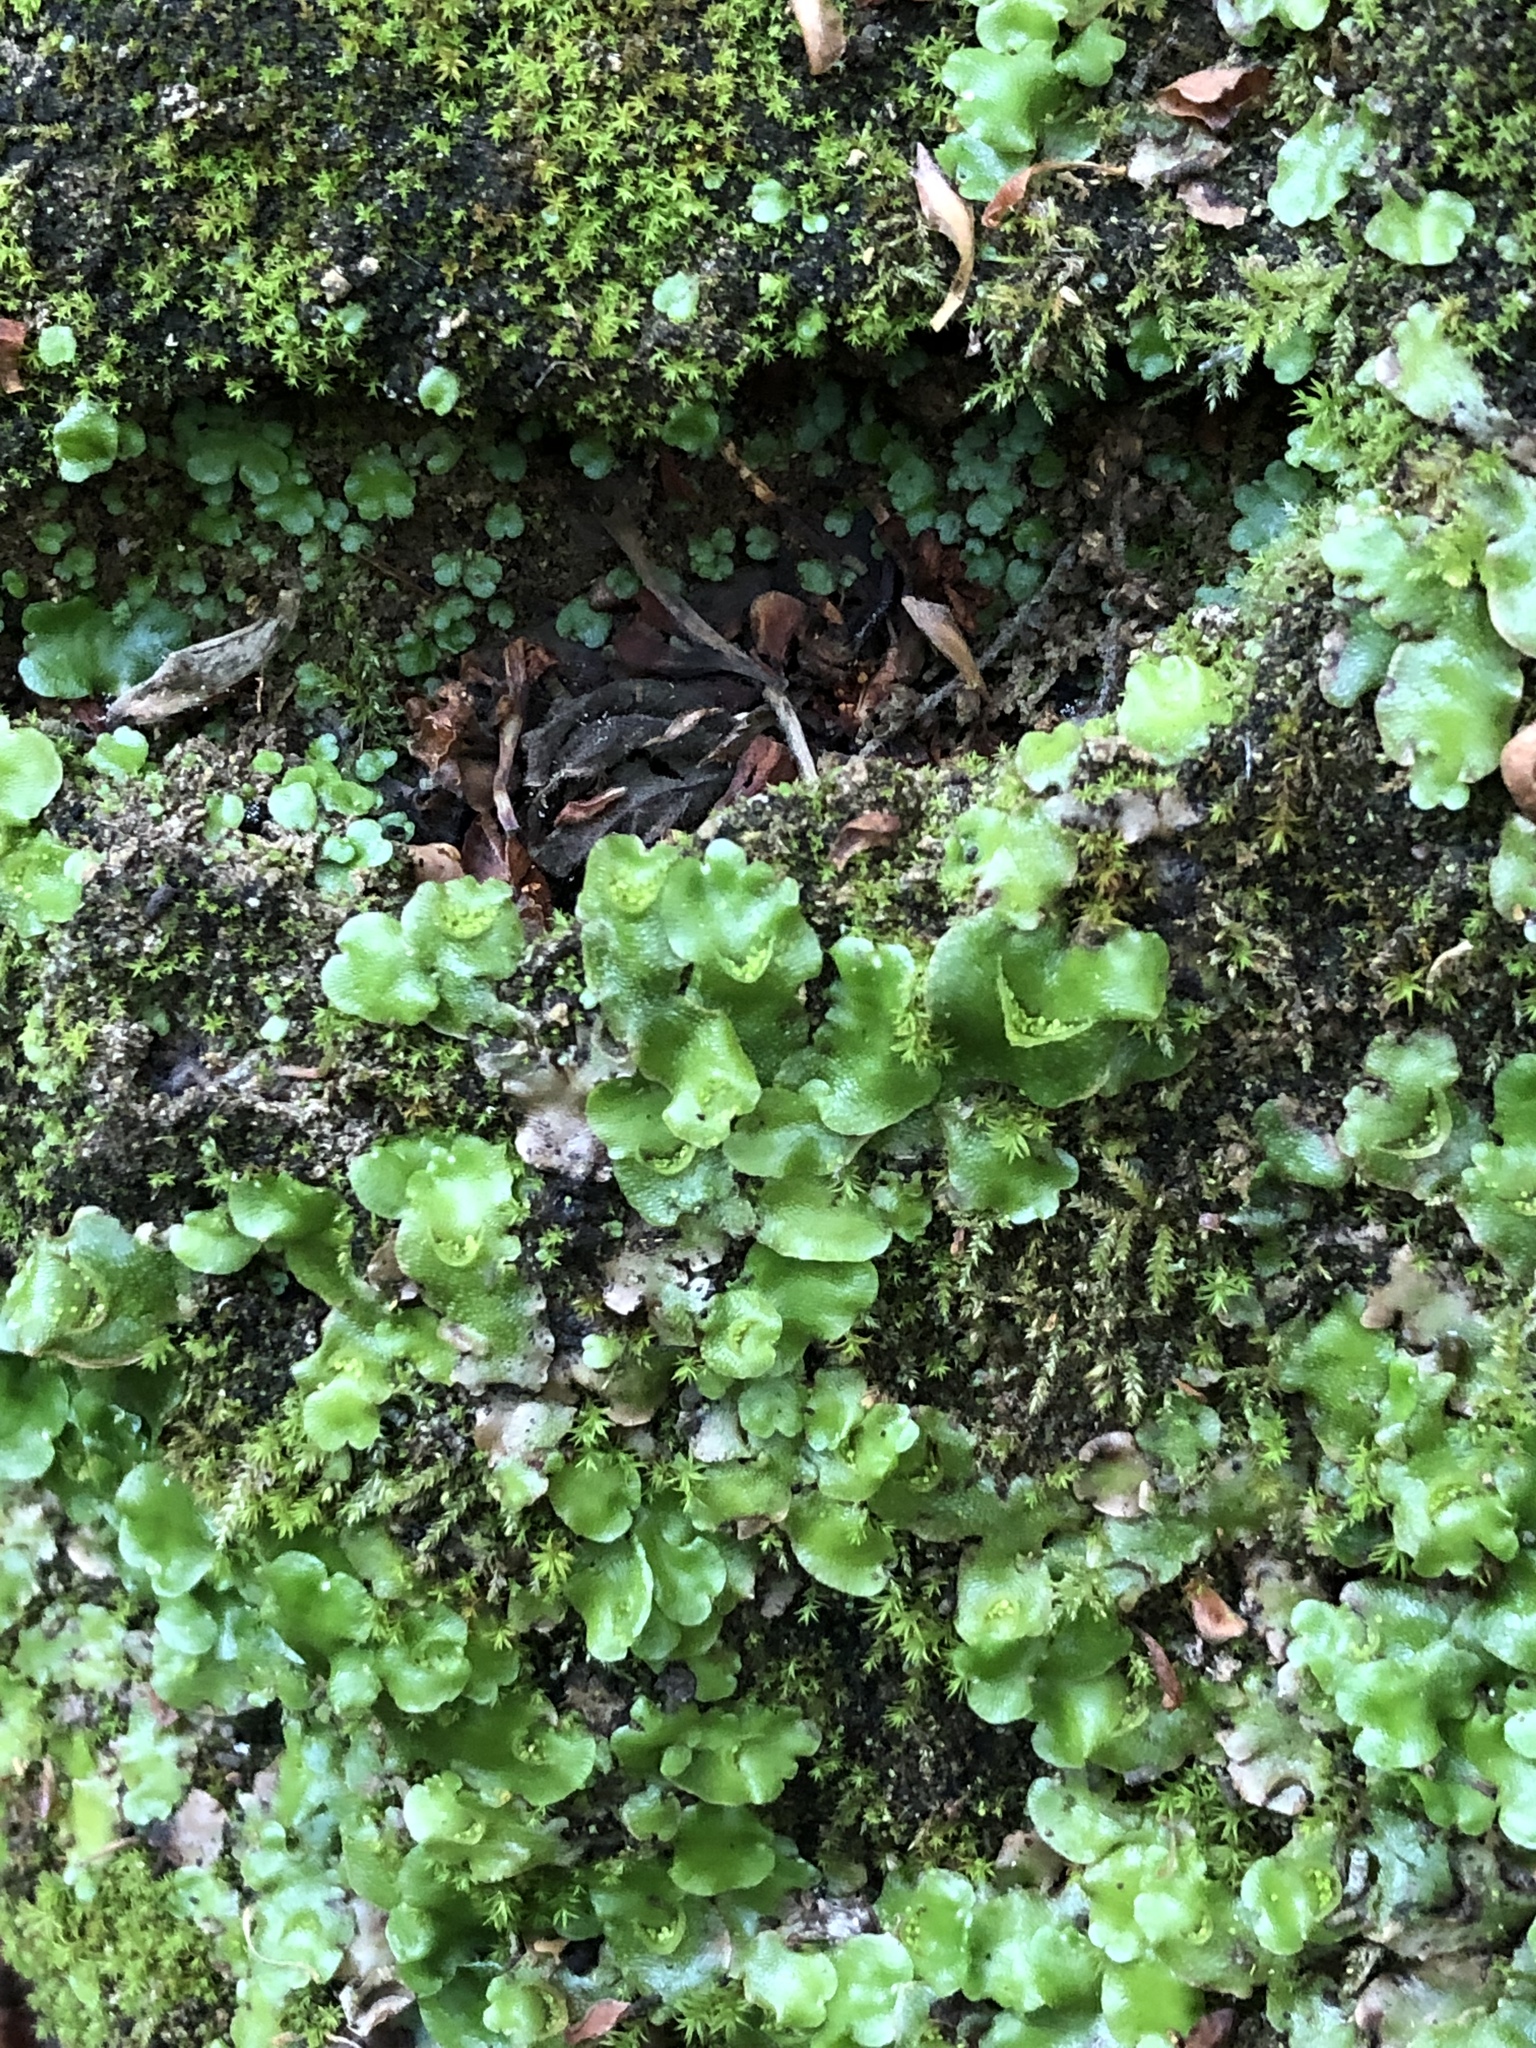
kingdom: Plantae
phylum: Marchantiophyta
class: Marchantiopsida
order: Lunulariales
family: Lunulariaceae
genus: Lunularia
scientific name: Lunularia cruciata
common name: Crescent-cup liverwort
